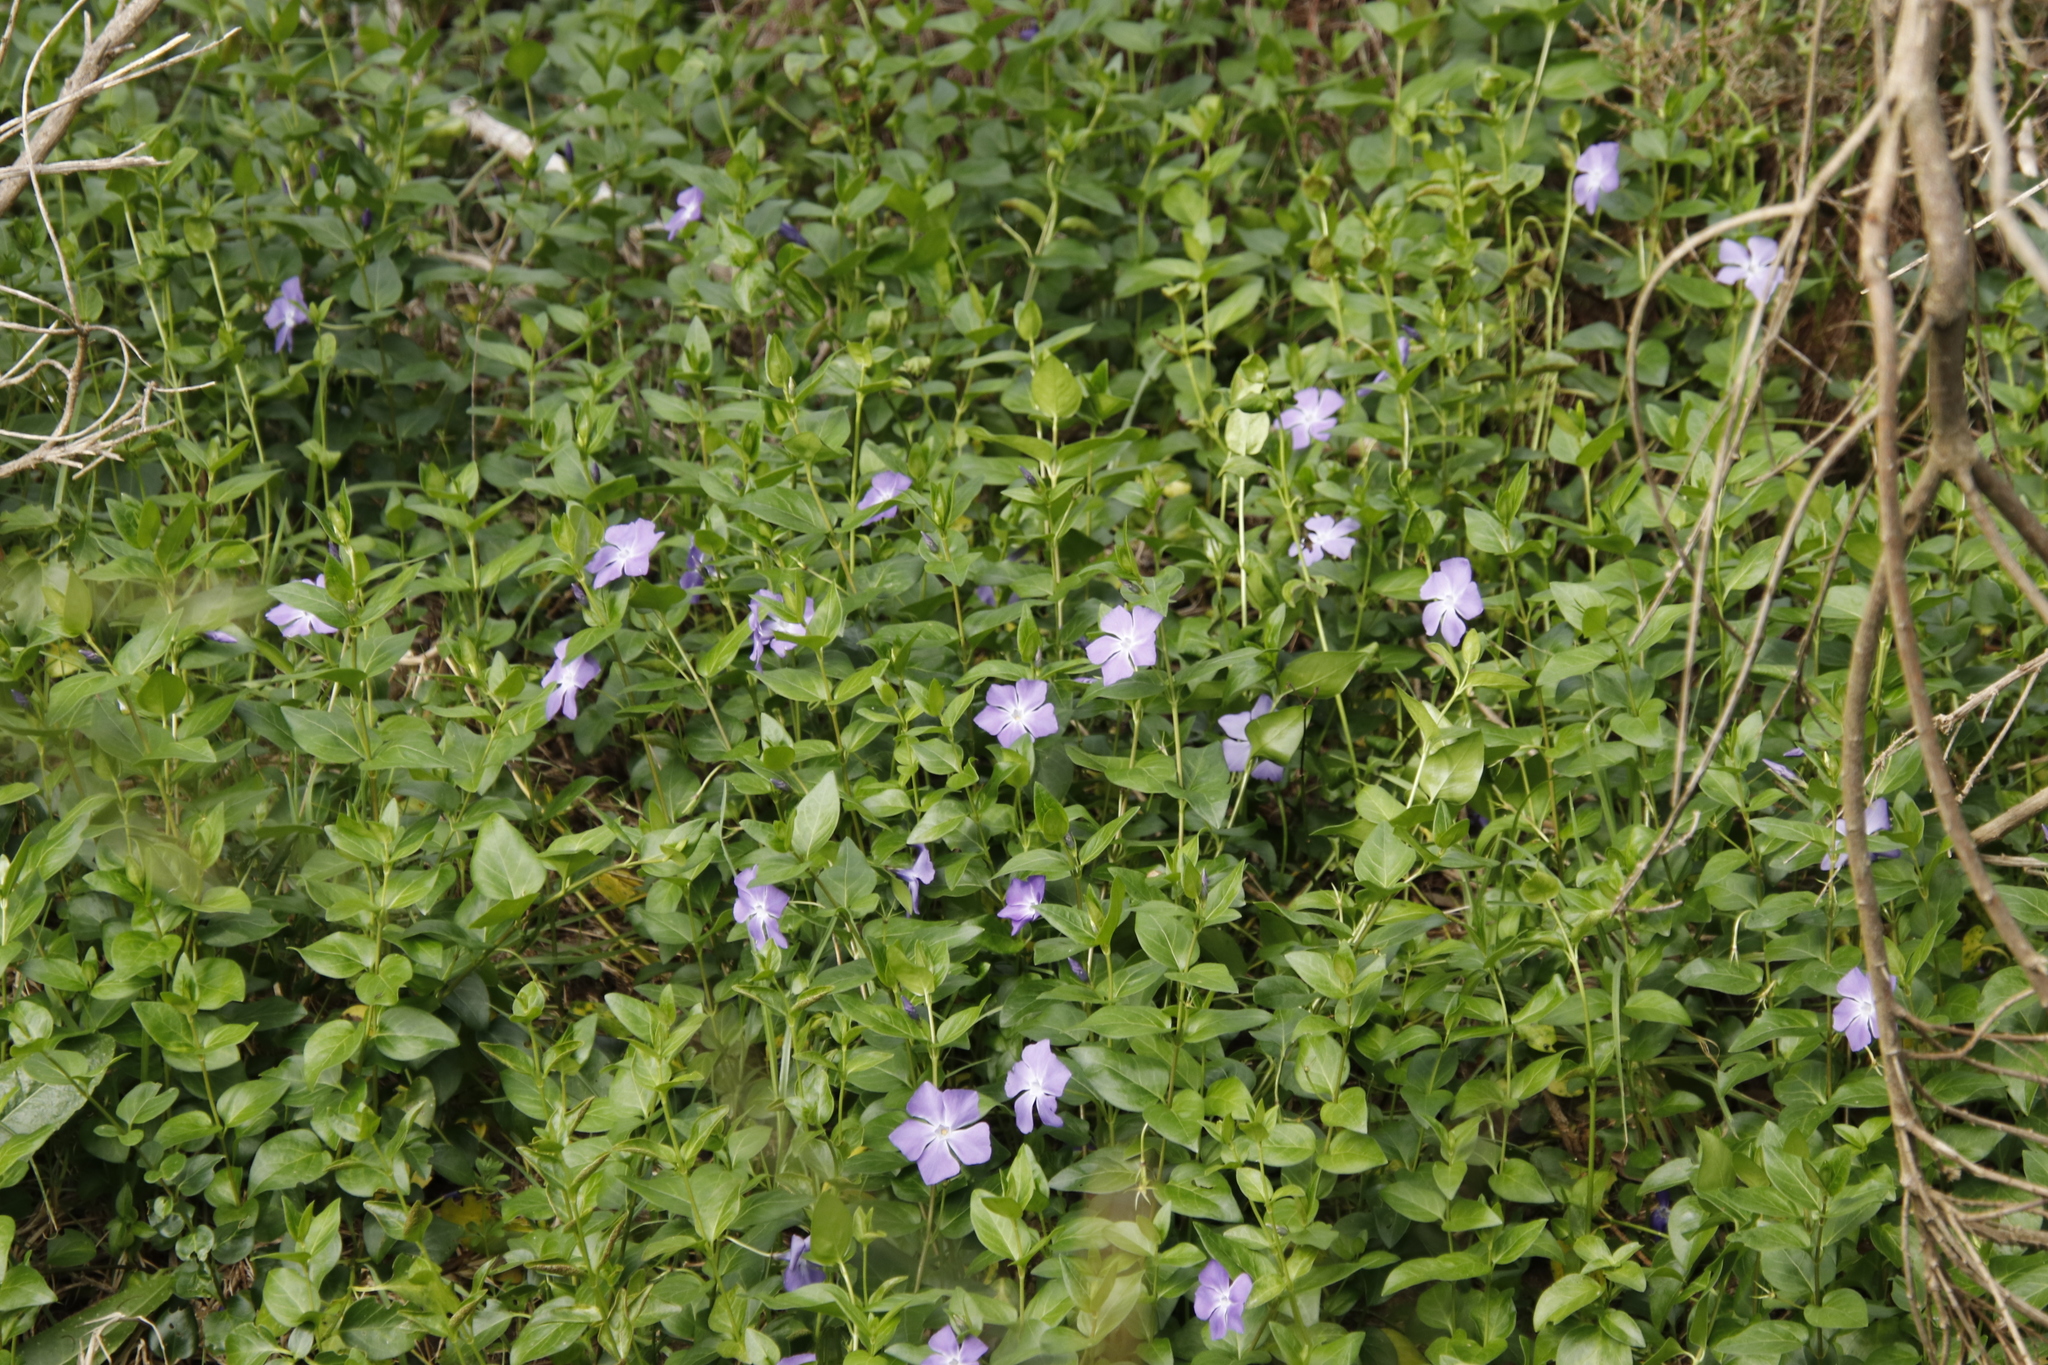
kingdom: Plantae
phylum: Tracheophyta
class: Magnoliopsida
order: Gentianales
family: Apocynaceae
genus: Vinca
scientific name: Vinca major
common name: Greater periwinkle
